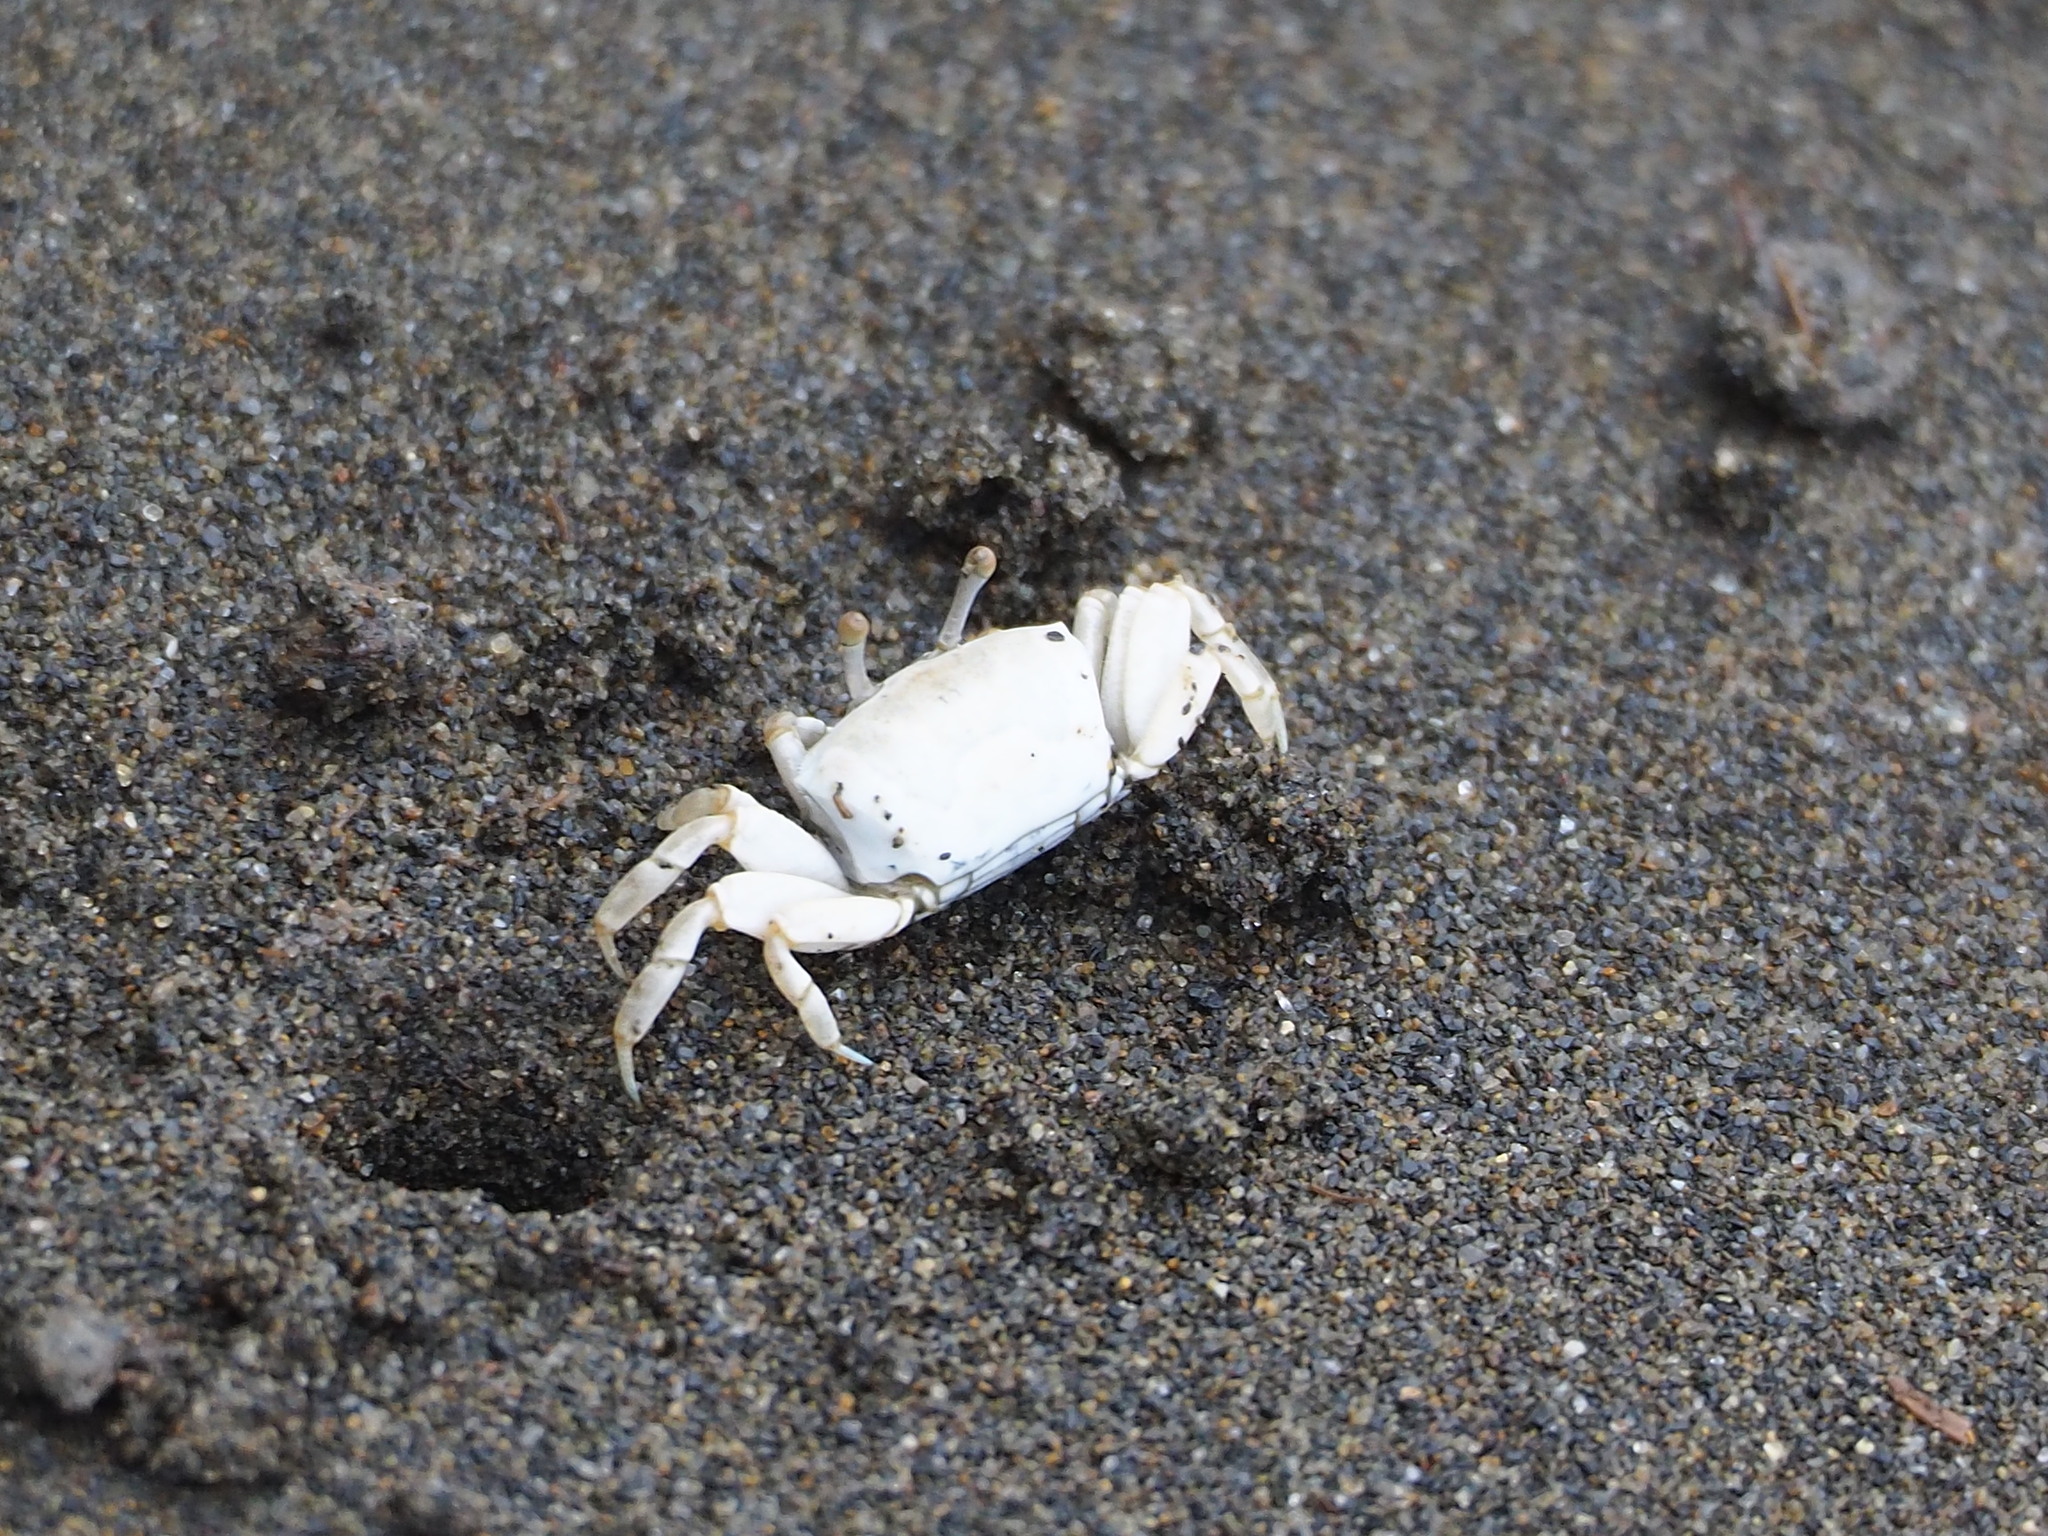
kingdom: Animalia
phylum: Arthropoda
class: Malacostraca
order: Decapoda
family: Ocypodidae
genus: Austruca
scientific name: Austruca lactea
